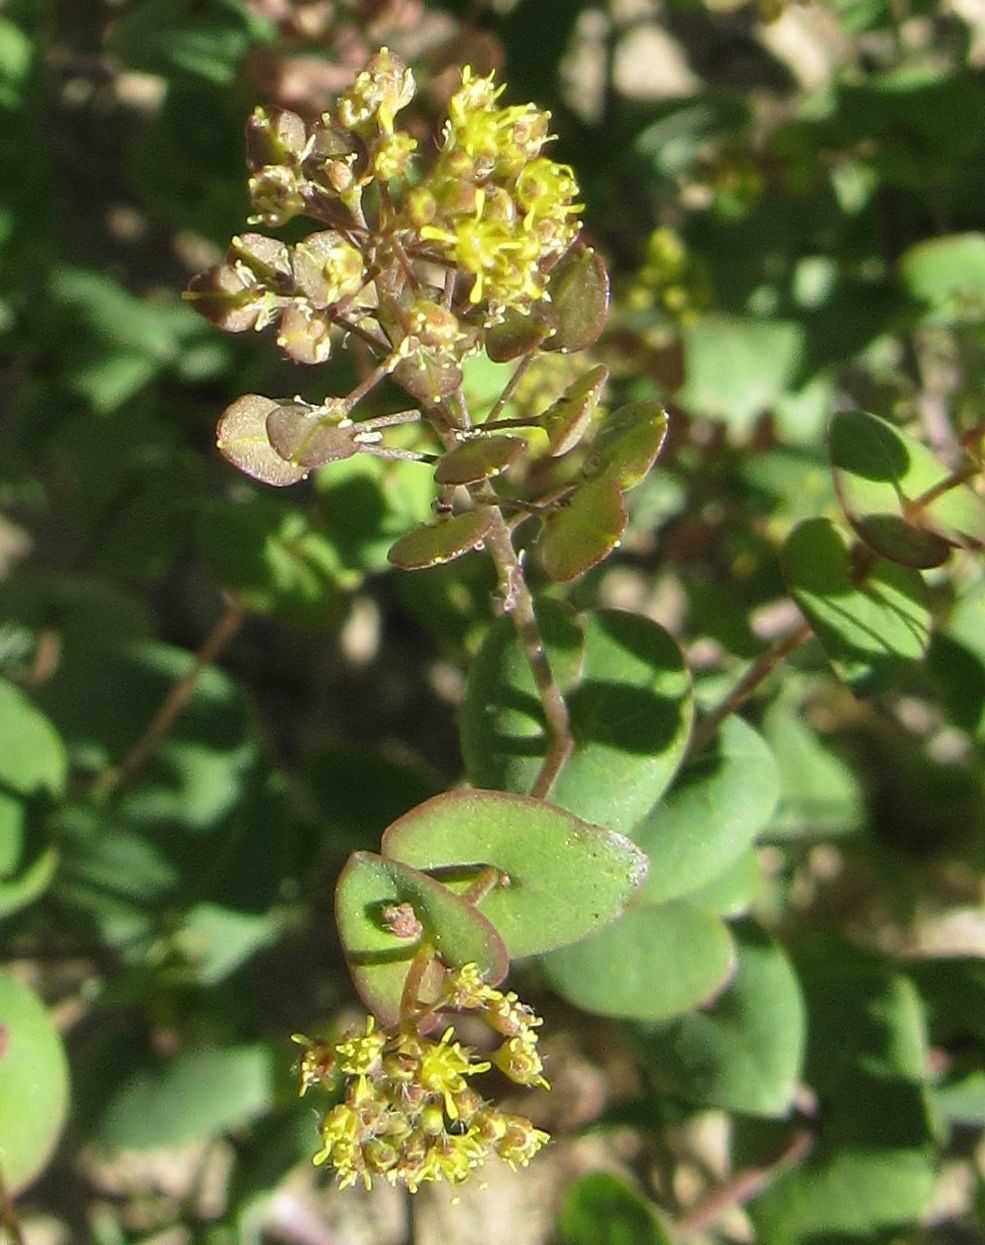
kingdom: Plantae
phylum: Tracheophyta
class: Magnoliopsida
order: Brassicales
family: Brassicaceae
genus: Lepidium
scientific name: Lepidium perfoliatum
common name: Perfoliate pepperwort
